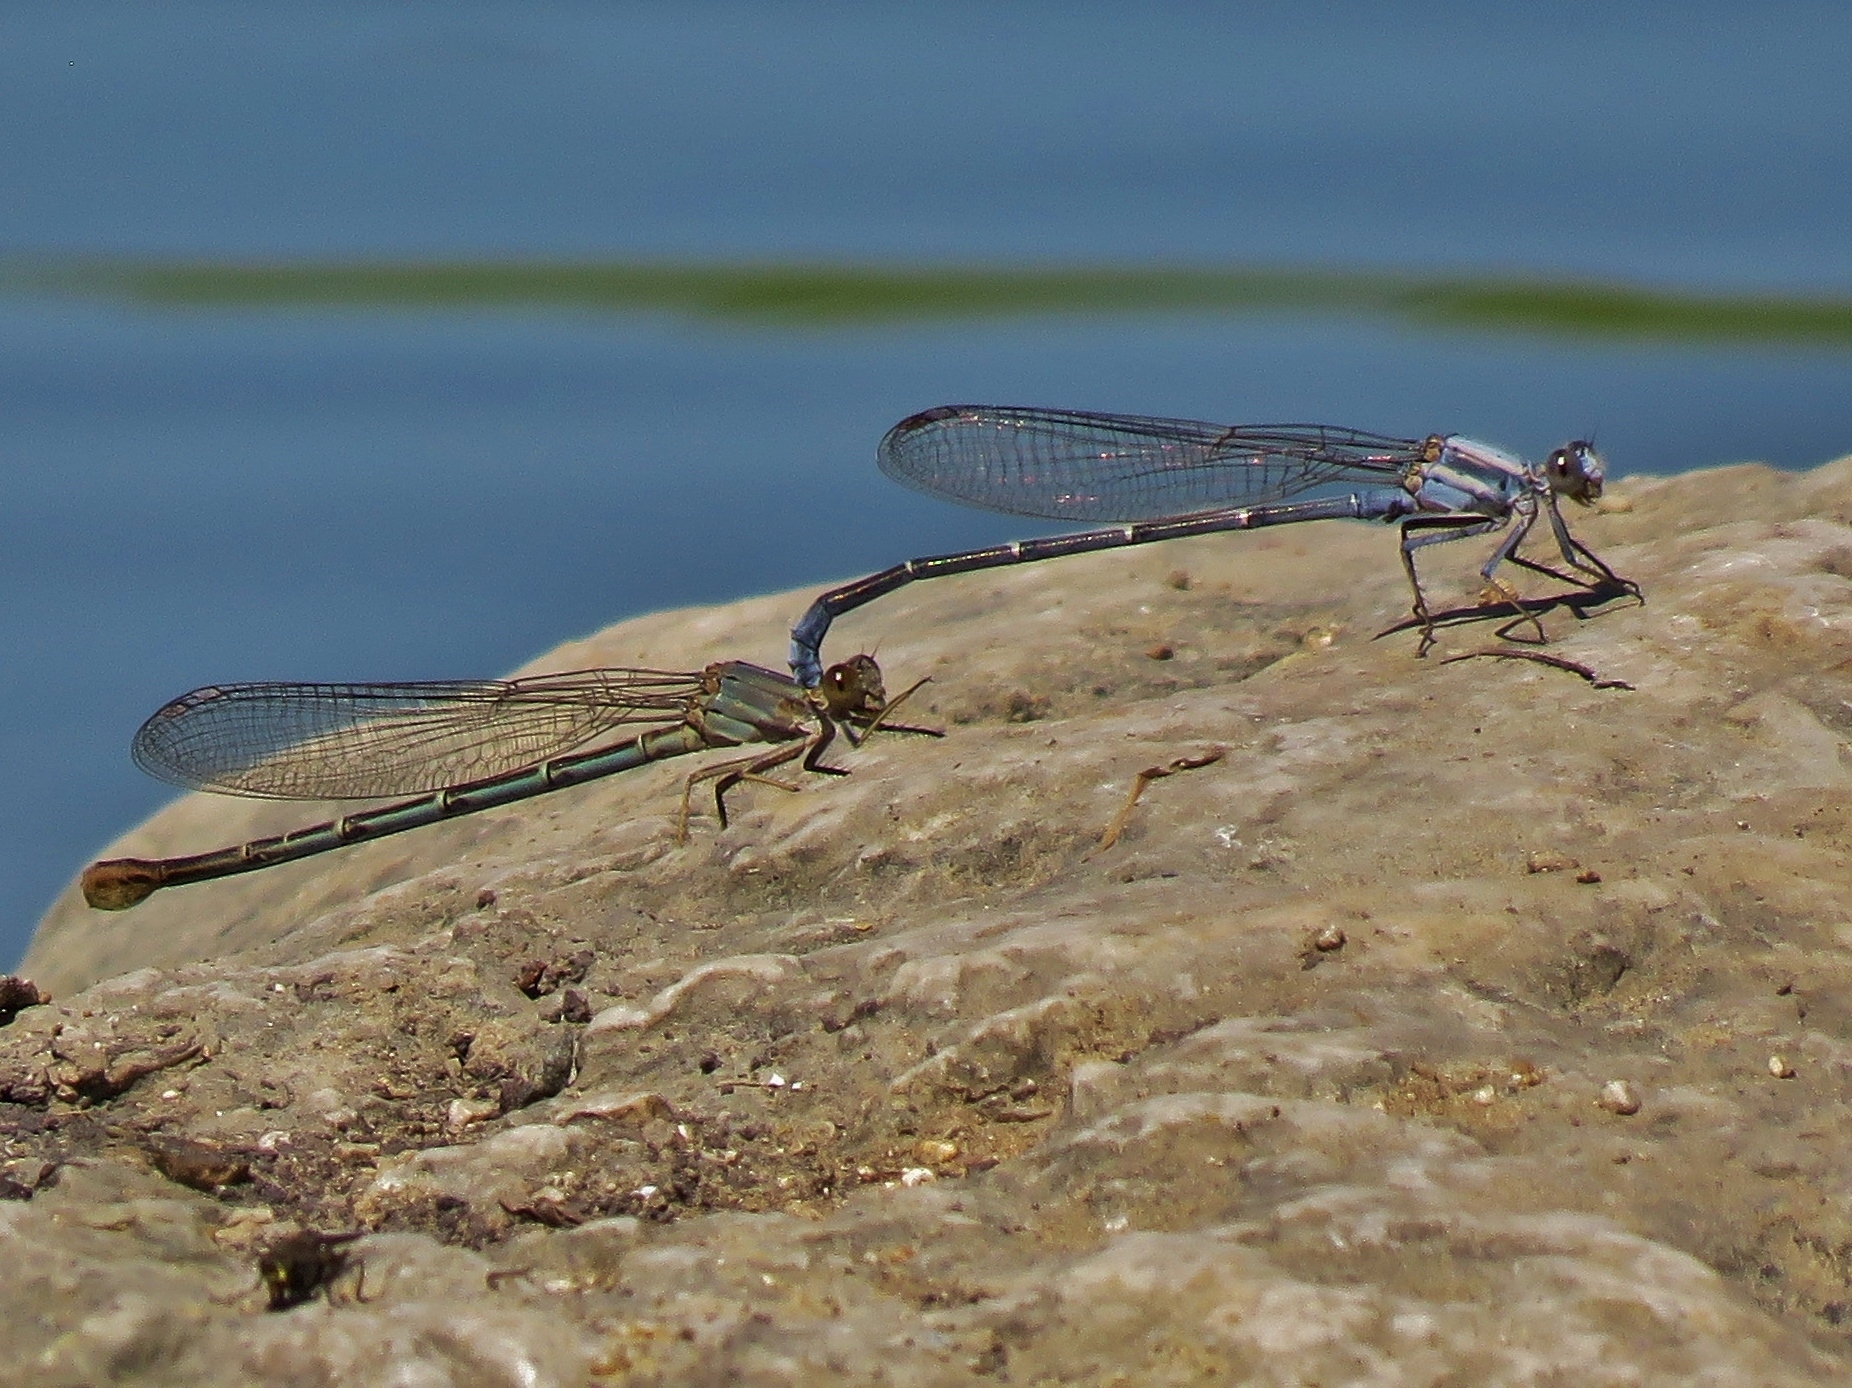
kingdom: Animalia
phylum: Arthropoda
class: Insecta
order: Odonata
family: Coenagrionidae
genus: Argia
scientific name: Argia moesta
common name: Powdered dancer
